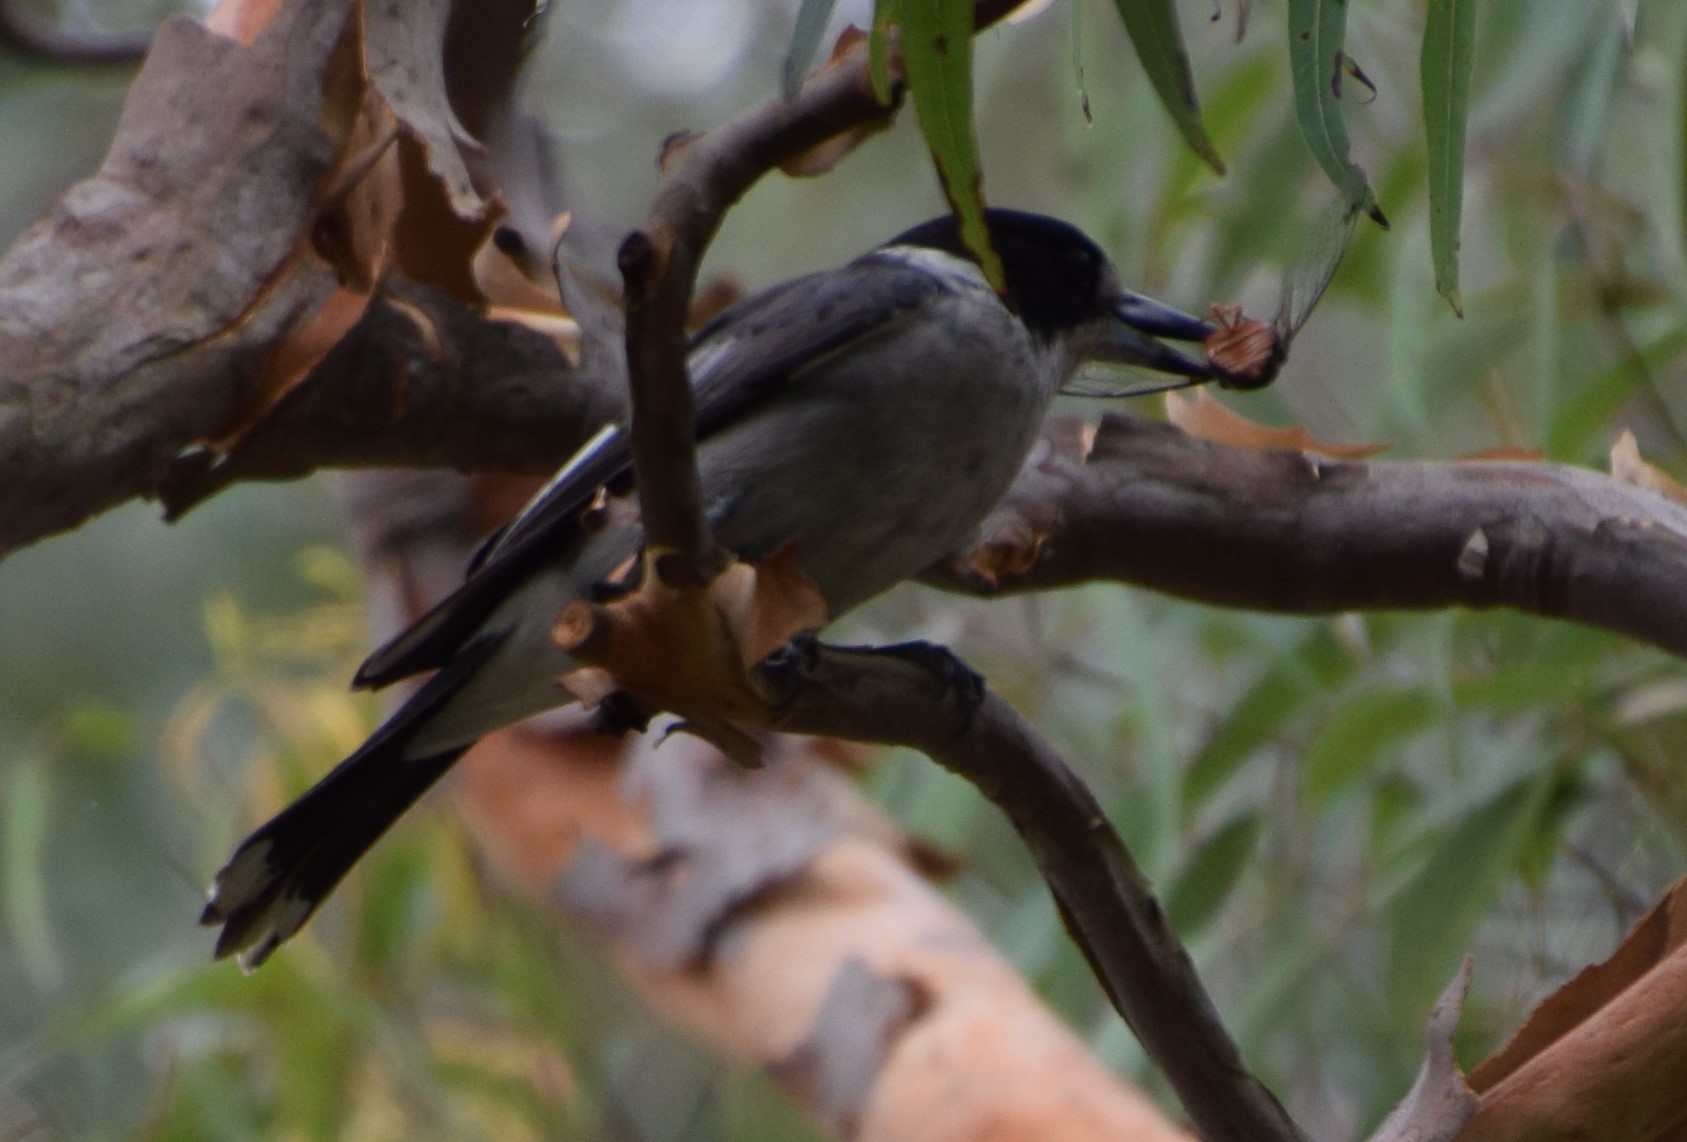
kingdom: Animalia
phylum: Arthropoda
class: Insecta
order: Hemiptera
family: Cicadidae
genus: Psaltoda
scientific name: Psaltoda plaga
